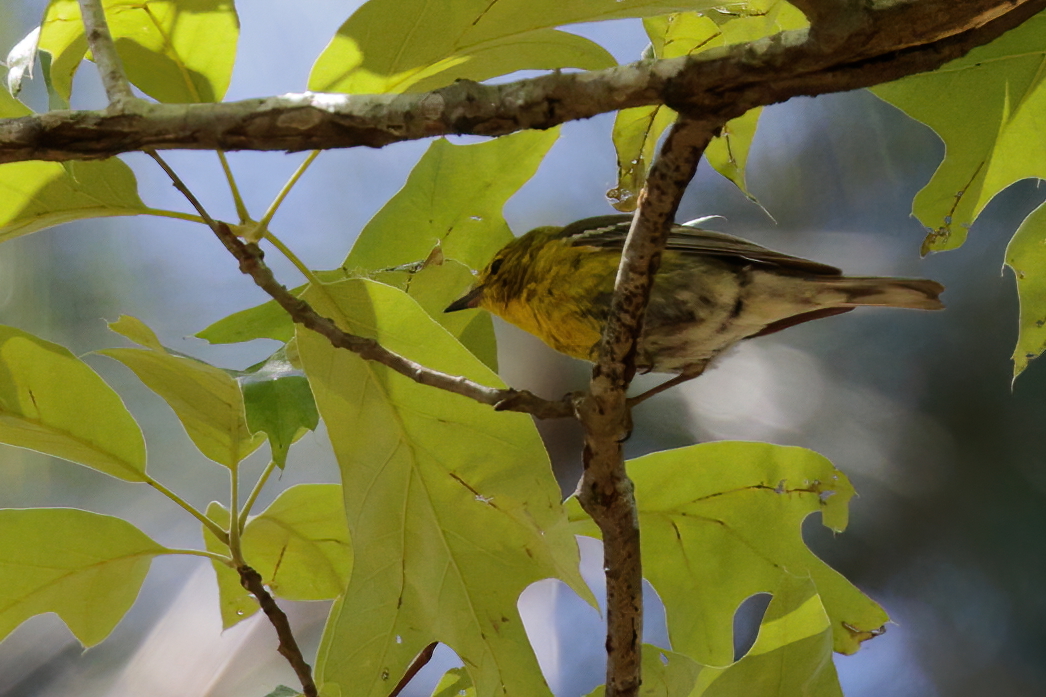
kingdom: Animalia
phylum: Chordata
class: Aves
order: Passeriformes
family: Parulidae
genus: Setophaga
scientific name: Setophaga pinus
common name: Pine warbler
